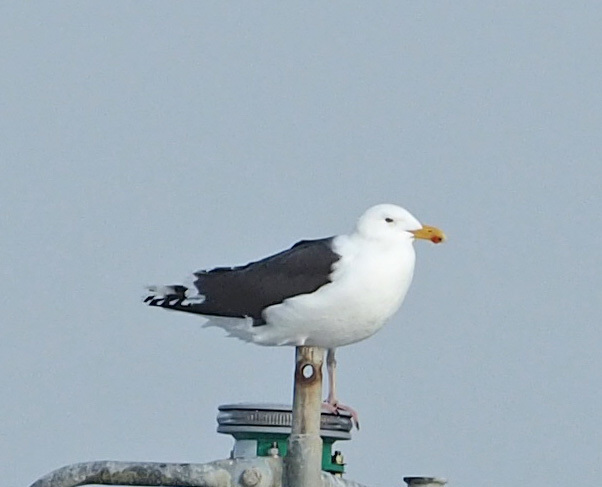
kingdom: Animalia
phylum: Chordata
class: Aves
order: Charadriiformes
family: Laridae
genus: Larus
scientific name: Larus marinus
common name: Great black-backed gull
